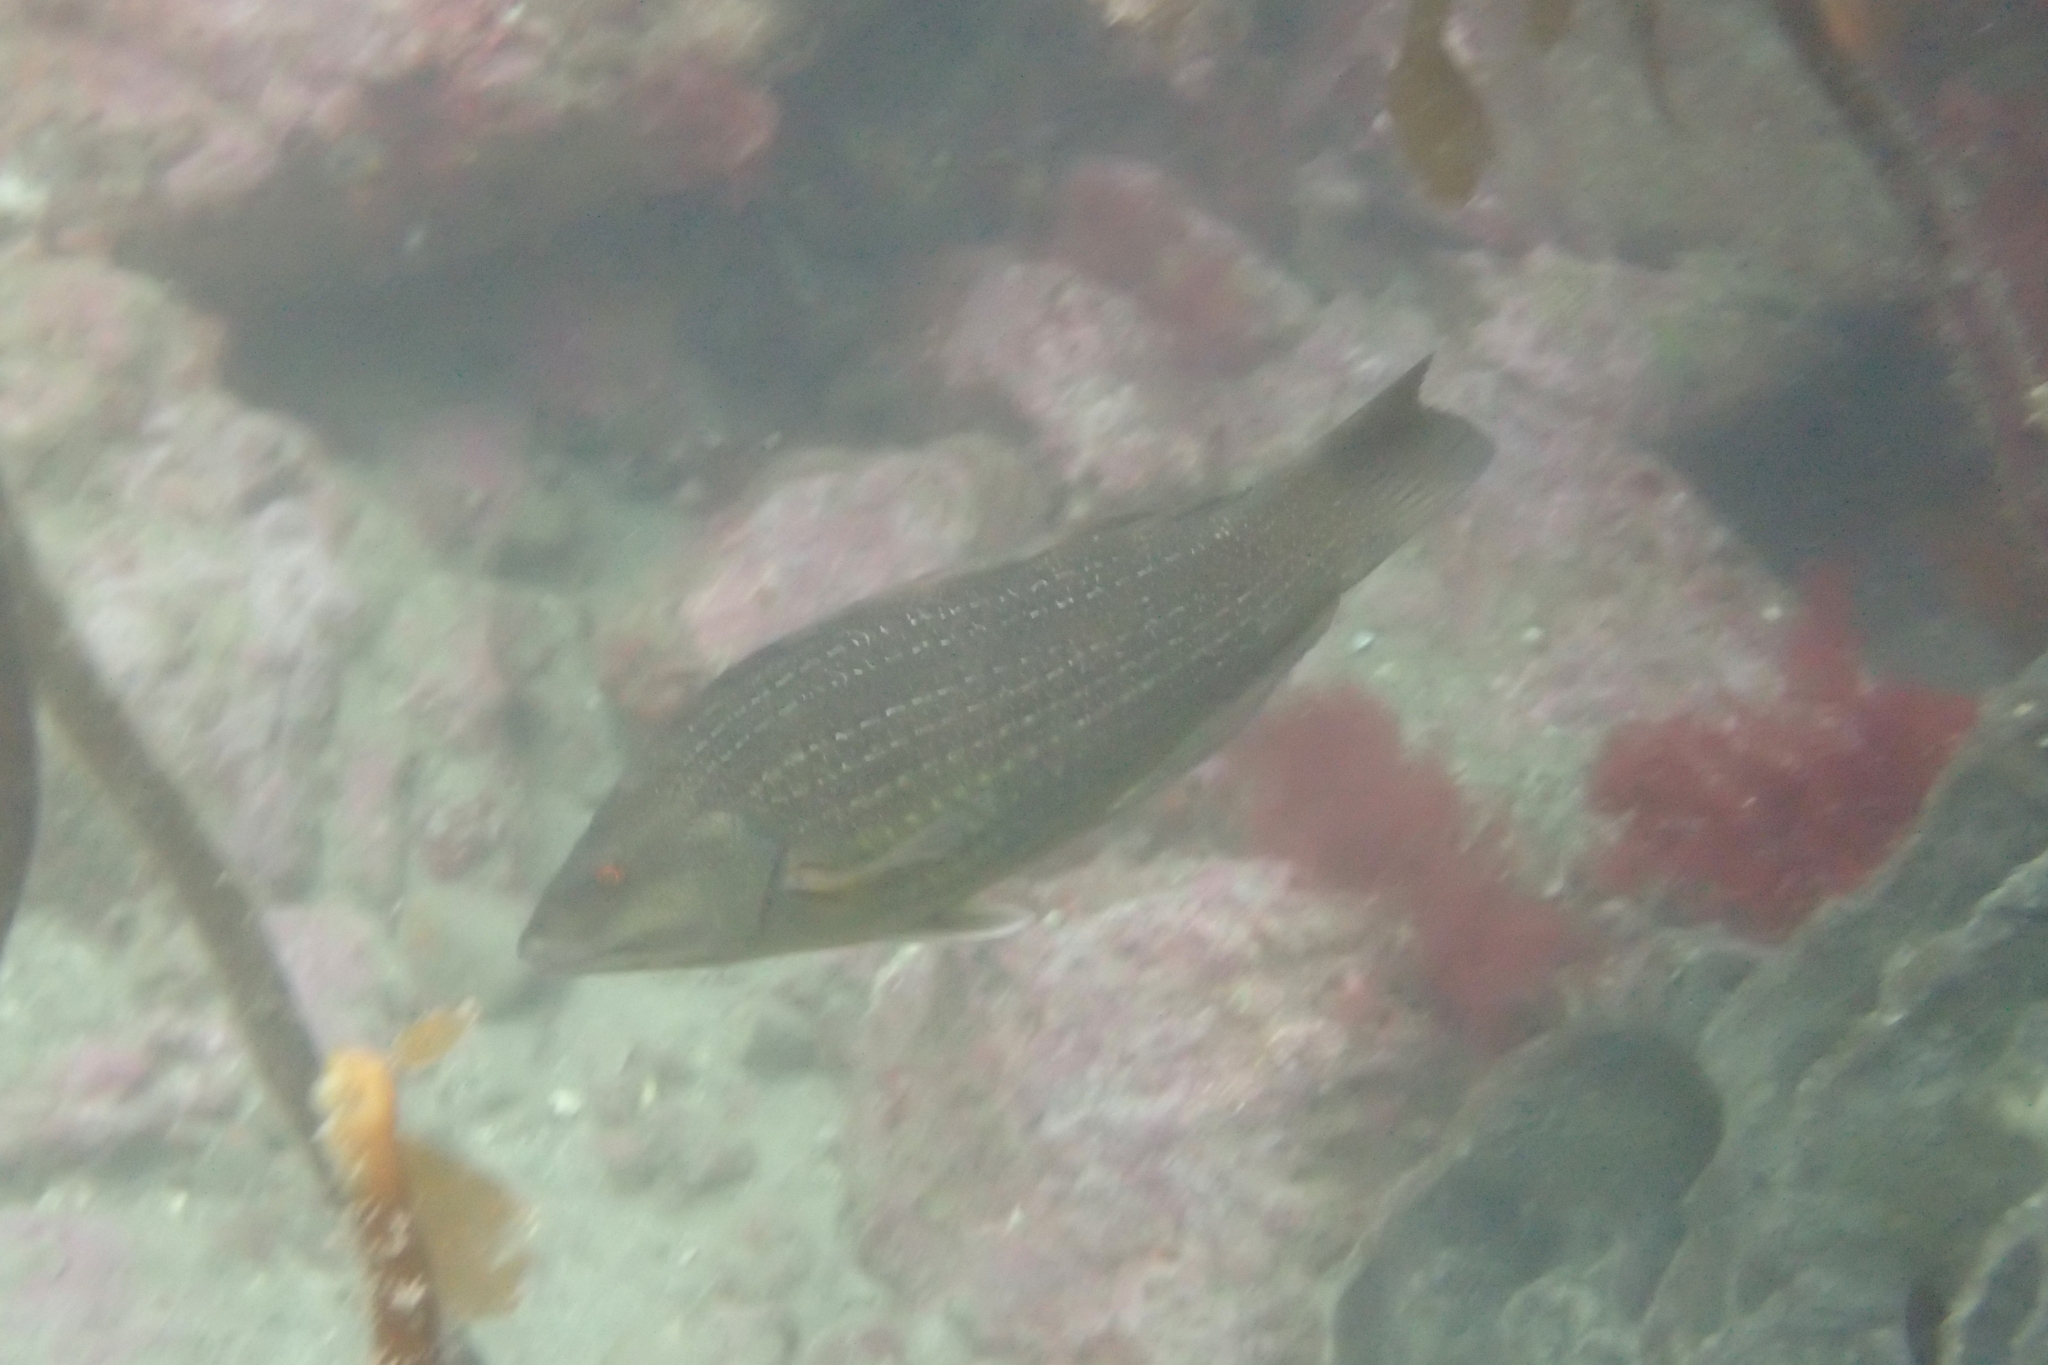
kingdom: Animalia
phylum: Chordata
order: Perciformes
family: Labridae
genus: Notolabrus
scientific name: Notolabrus inscriptus
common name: Green wrasse
